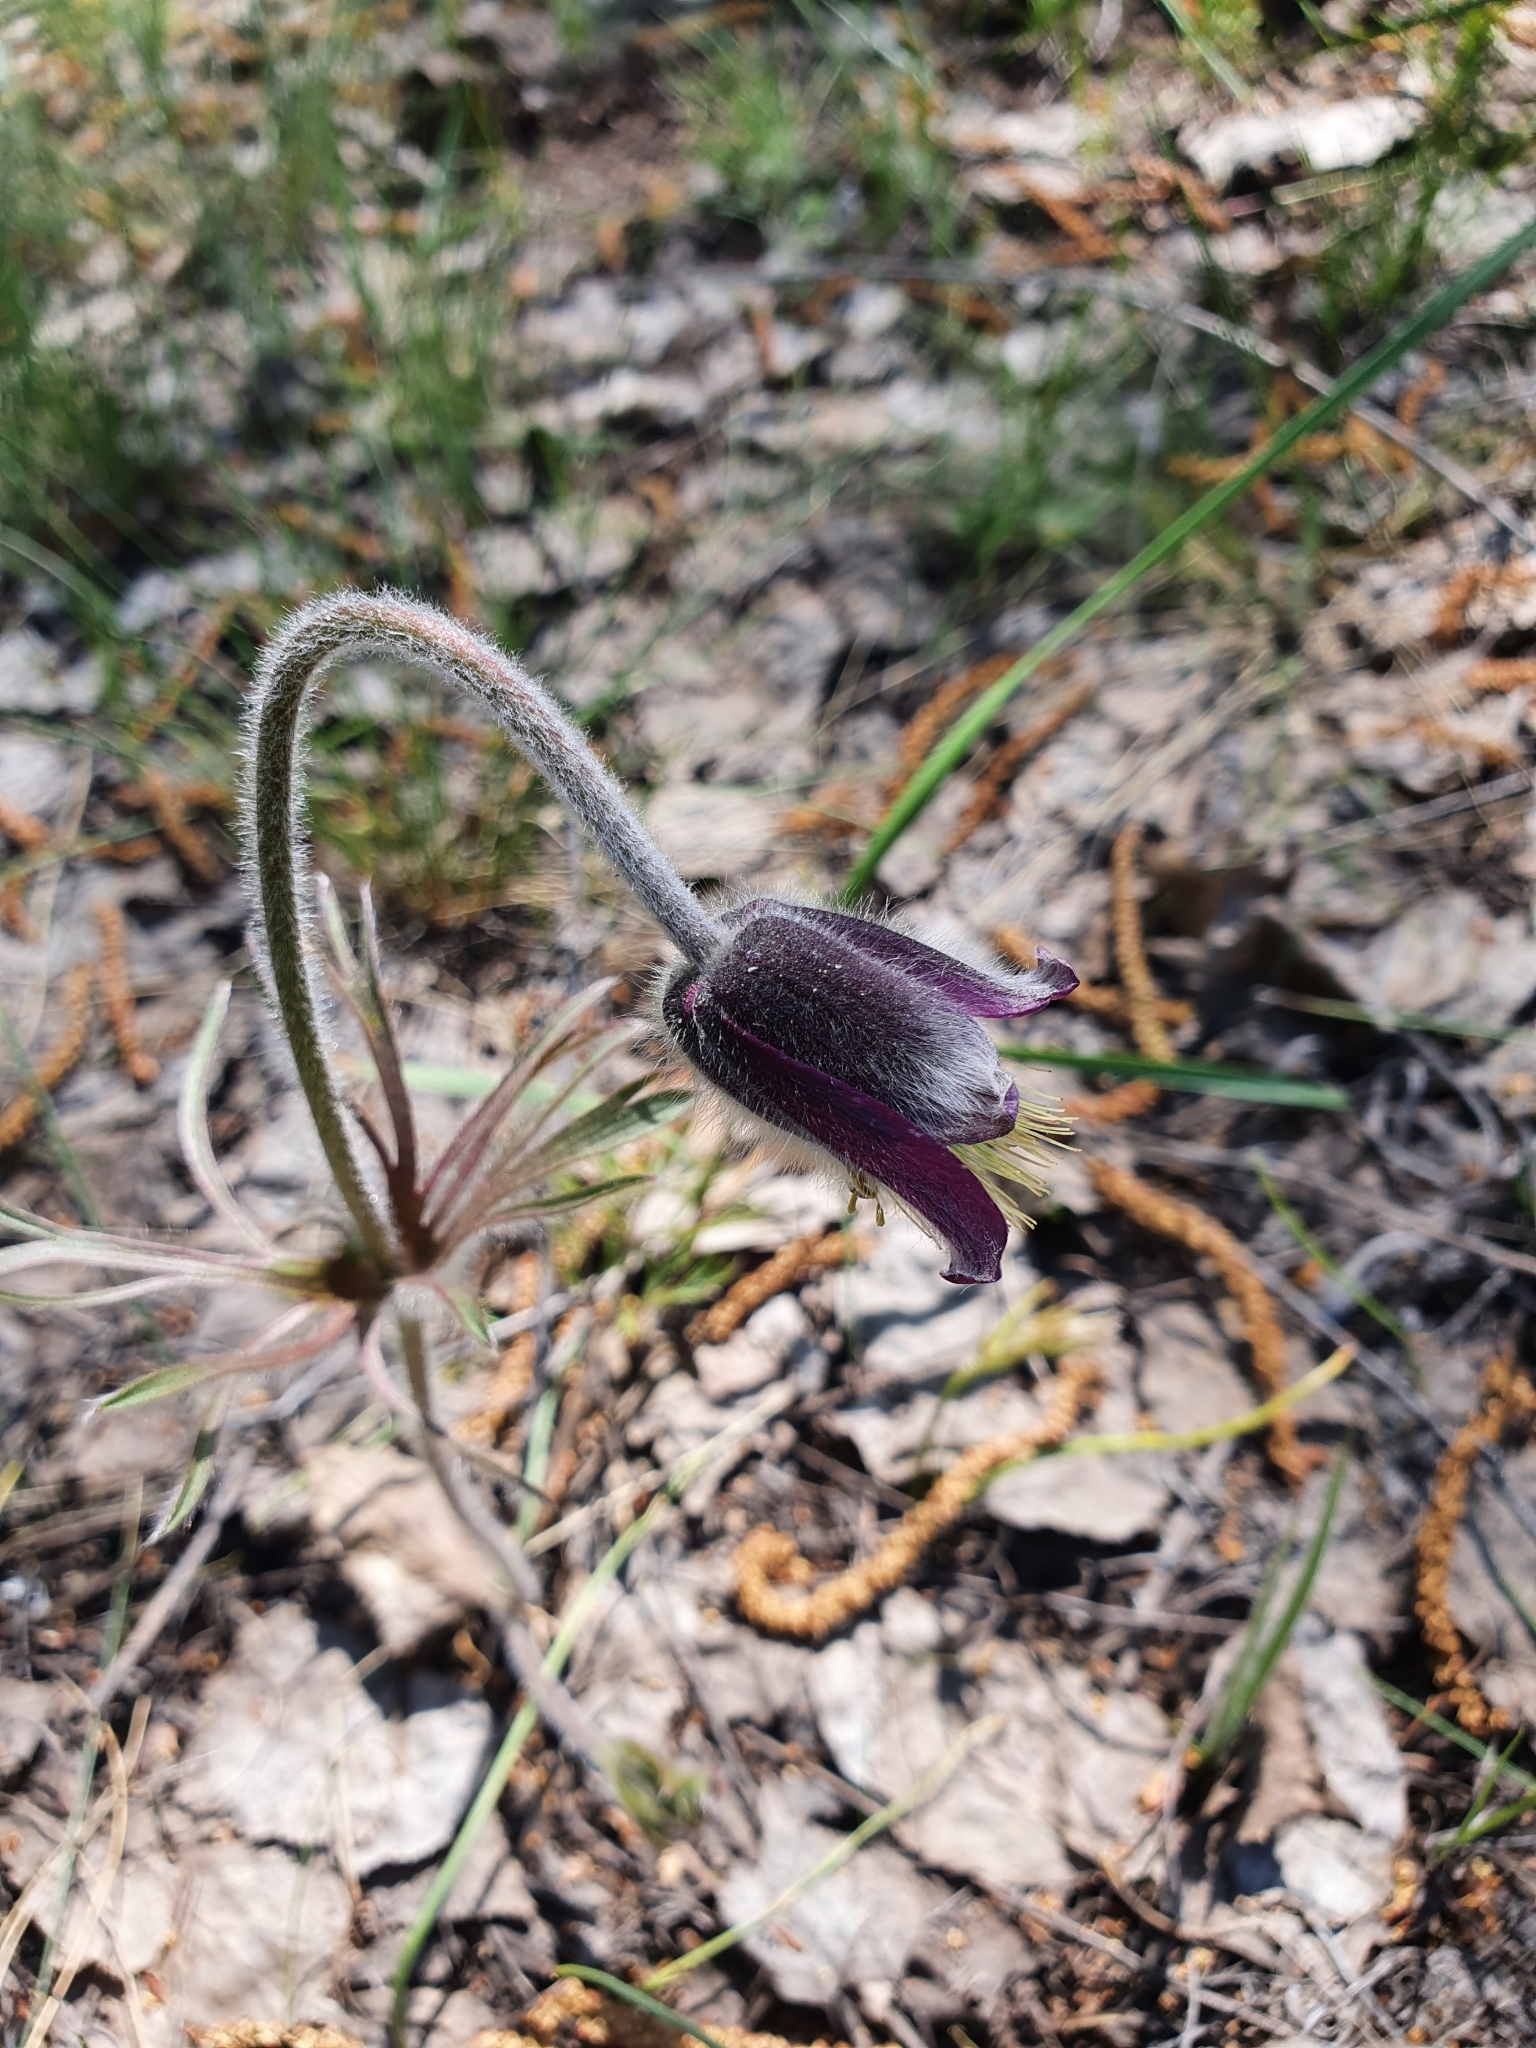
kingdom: Plantae
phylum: Tracheophyta
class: Magnoliopsida
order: Ranunculales
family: Ranunculaceae
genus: Pulsatilla
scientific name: Pulsatilla pratensis
